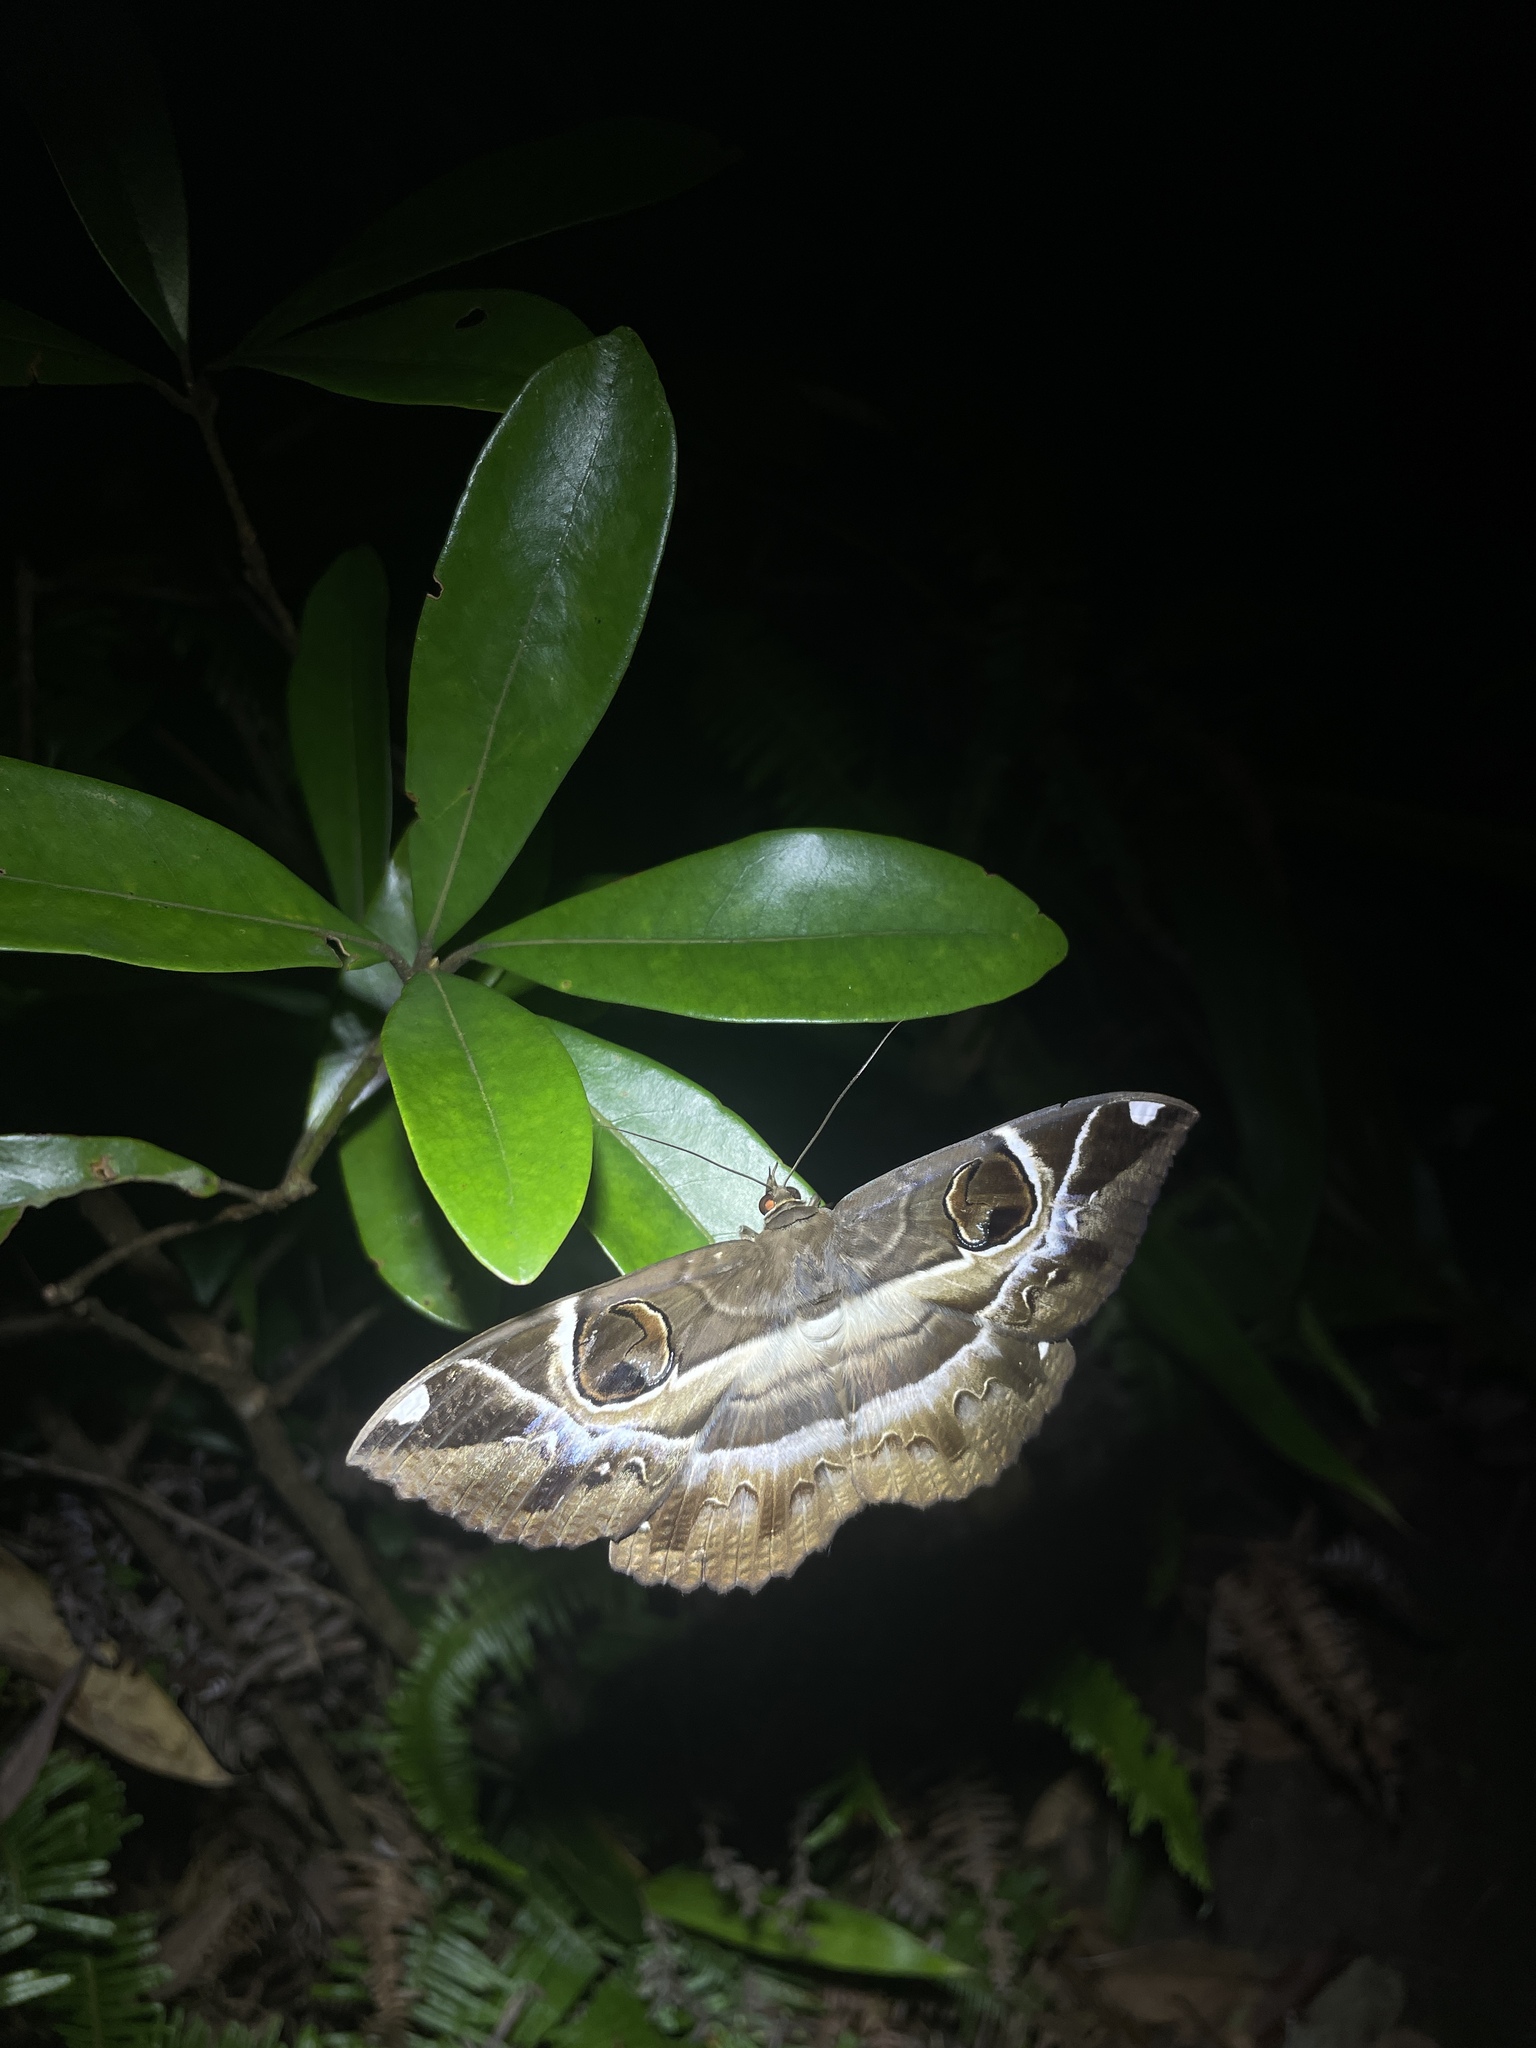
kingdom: Animalia
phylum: Arthropoda
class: Insecta
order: Lepidoptera
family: Erebidae
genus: Erebus
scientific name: Erebus ephesperis
